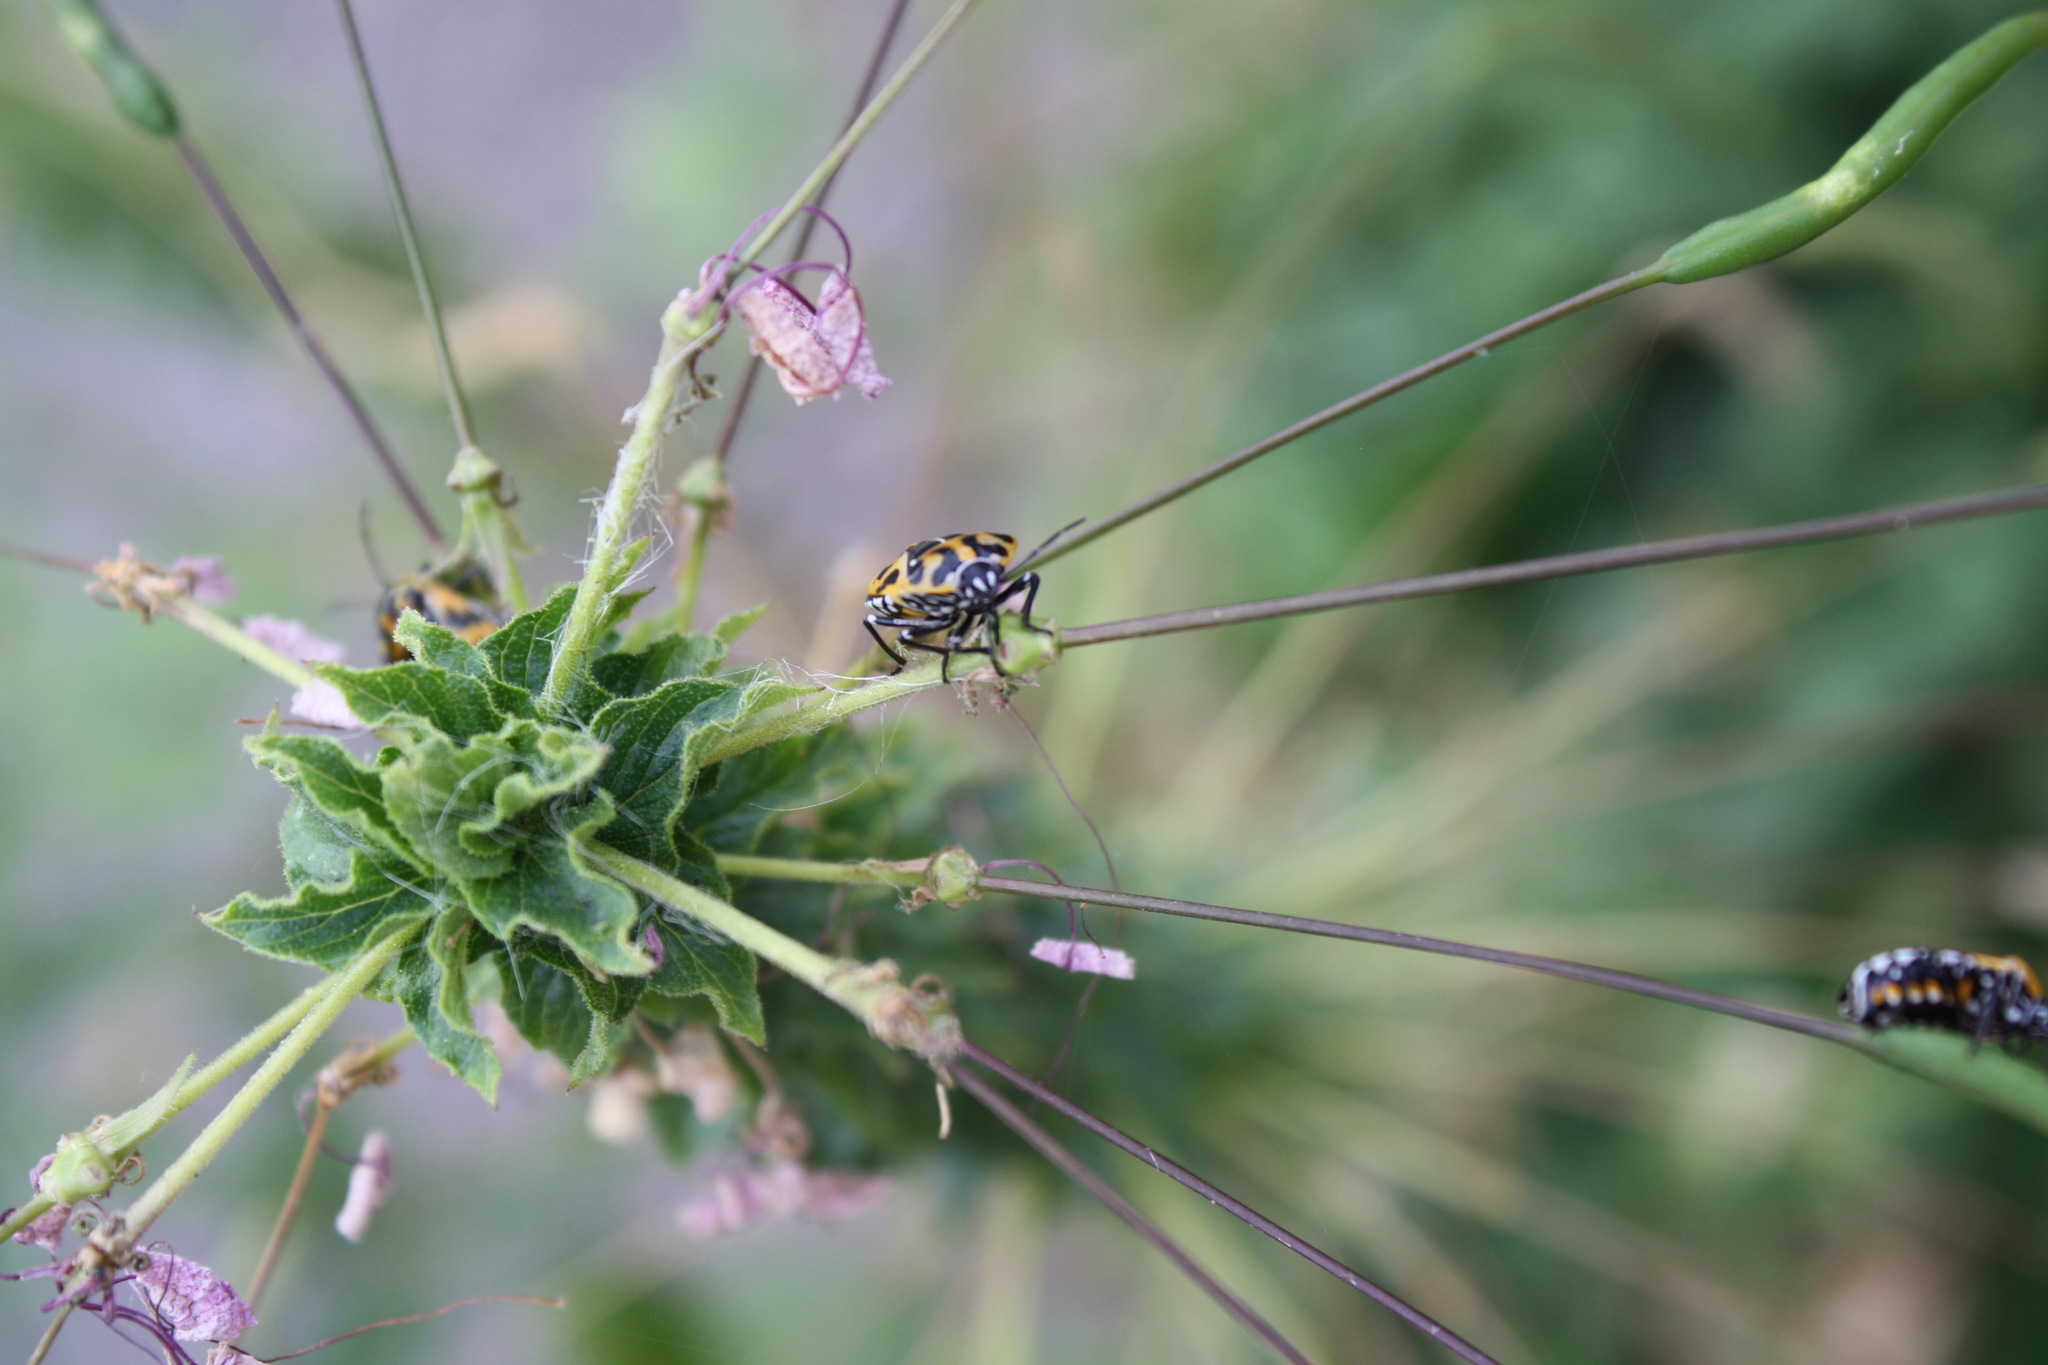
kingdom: Animalia
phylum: Arthropoda
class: Insecta
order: Hemiptera
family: Pentatomidae
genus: Murgantia
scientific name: Murgantia histrionica
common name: Harlequin bug
